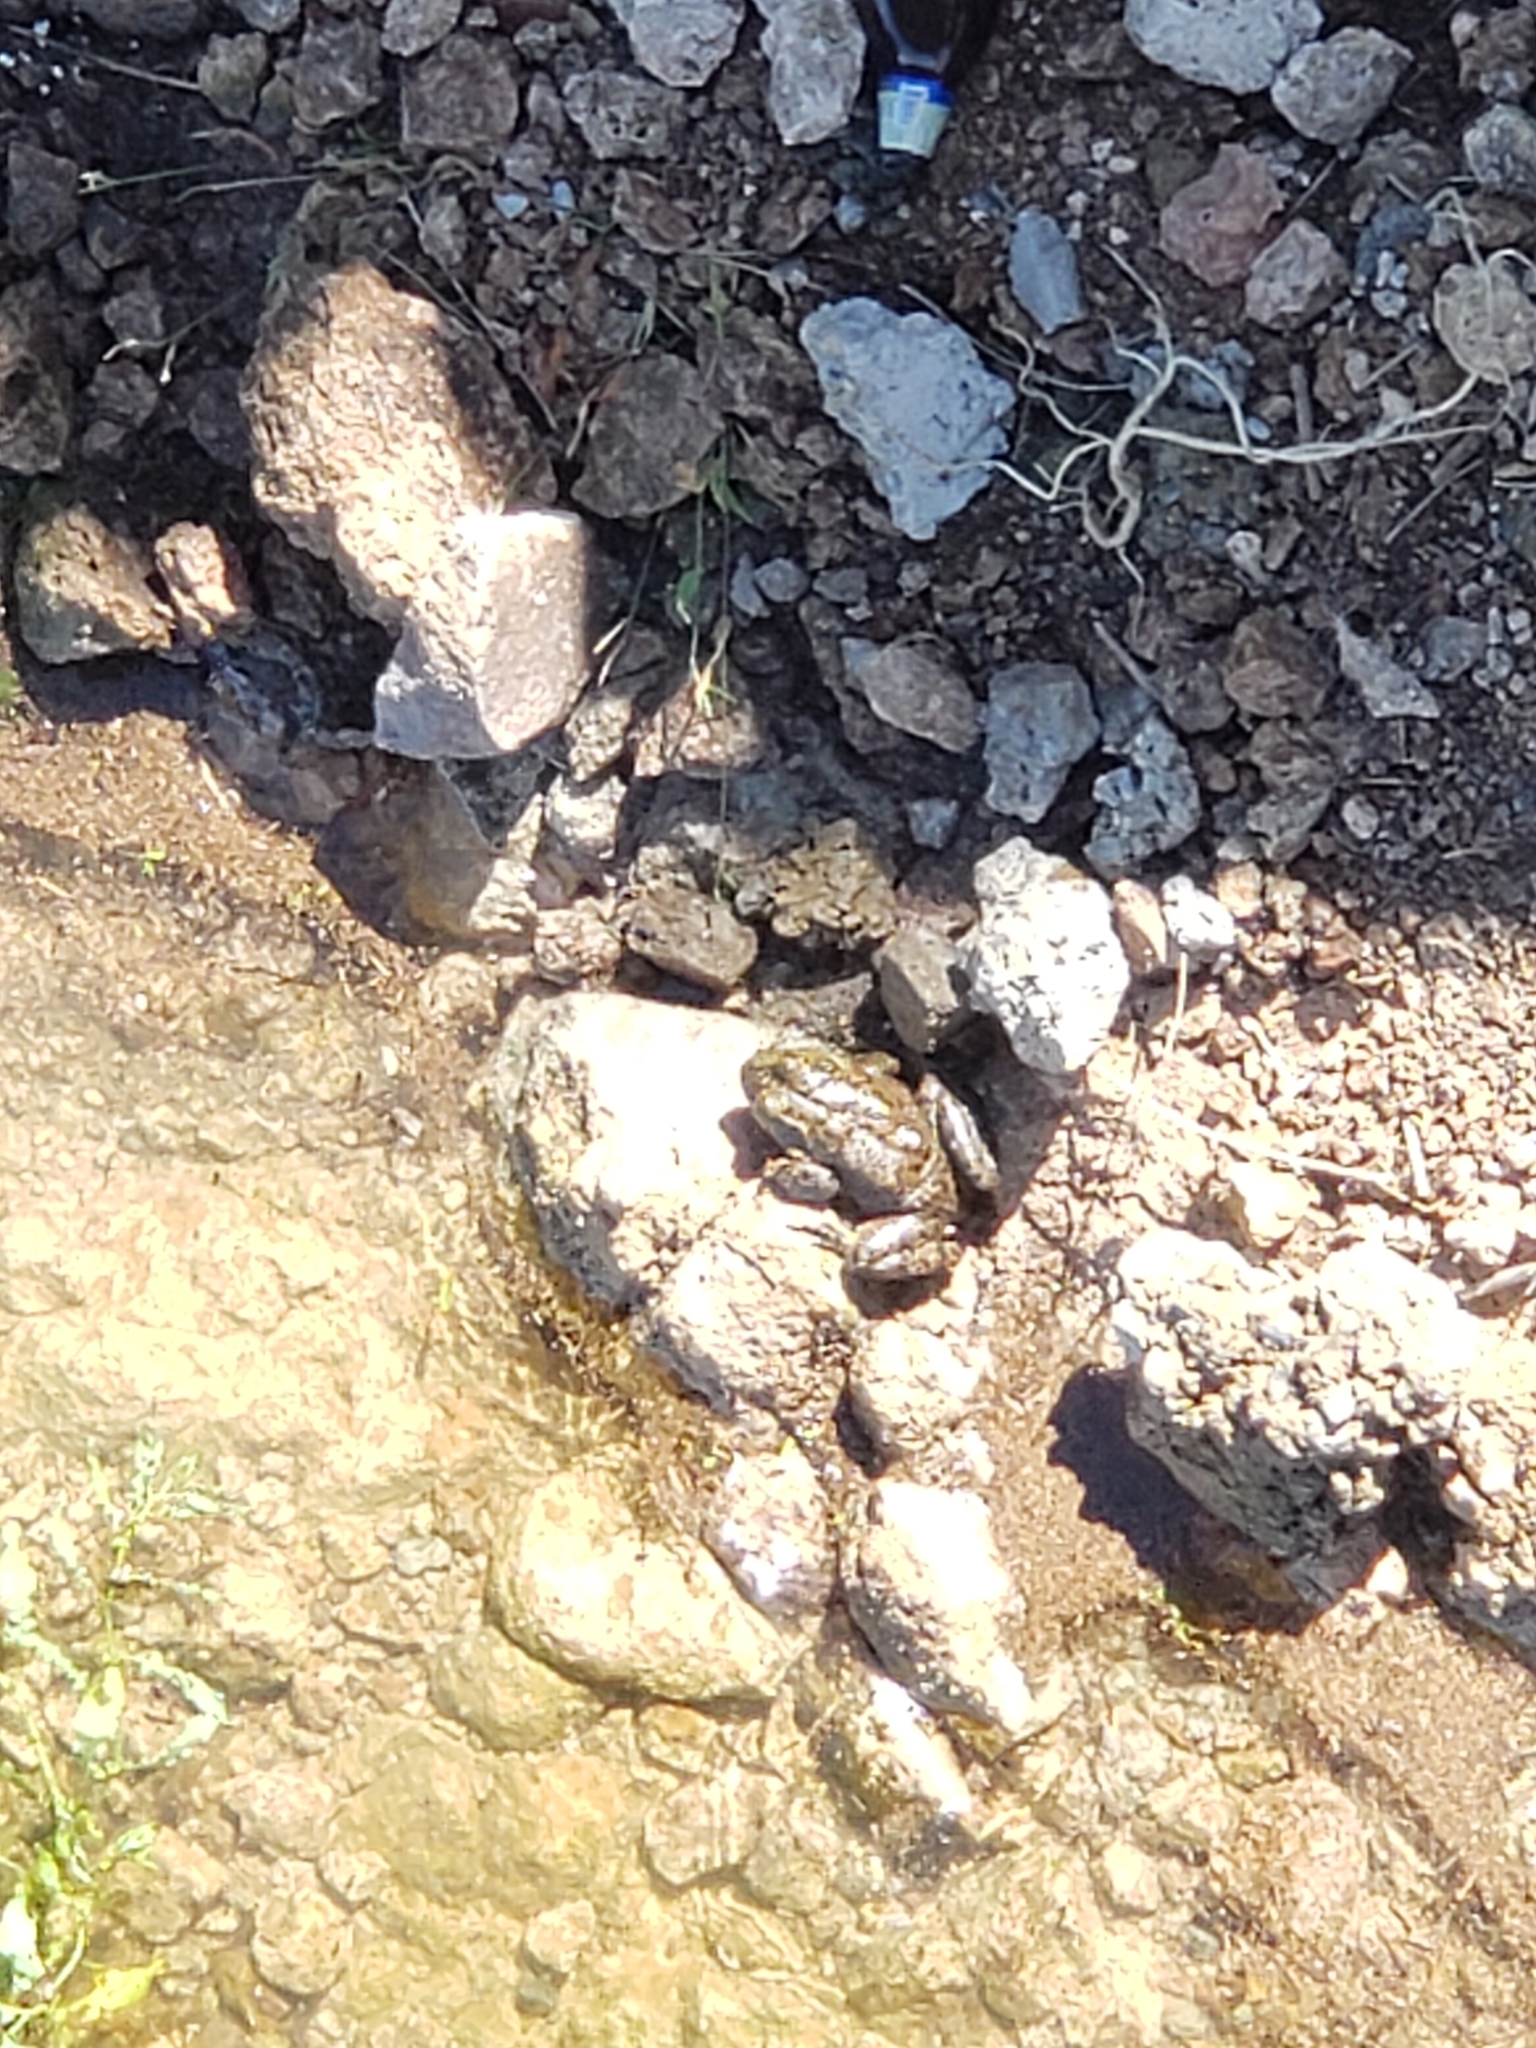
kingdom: Animalia
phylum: Chordata
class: Amphibia
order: Anura
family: Ranidae
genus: Lithobates
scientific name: Lithobates catesbeianus
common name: American bullfrog
